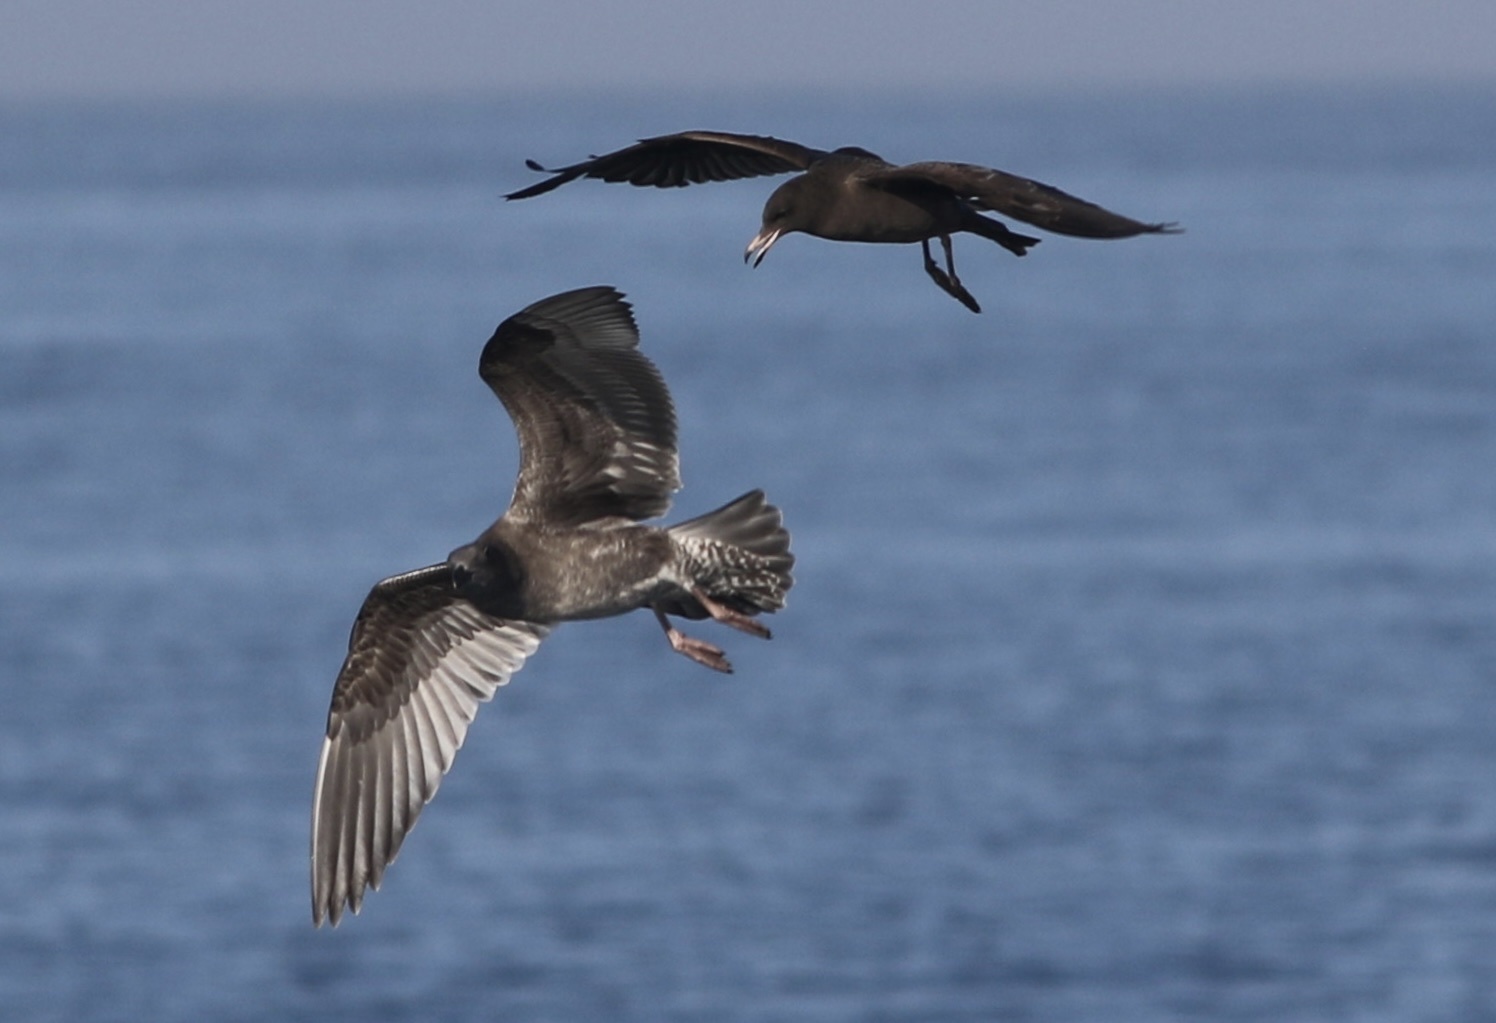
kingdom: Animalia
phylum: Chordata
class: Aves
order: Charadriiformes
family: Laridae
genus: Larus
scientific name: Larus heermanni
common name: Heermann's gull
